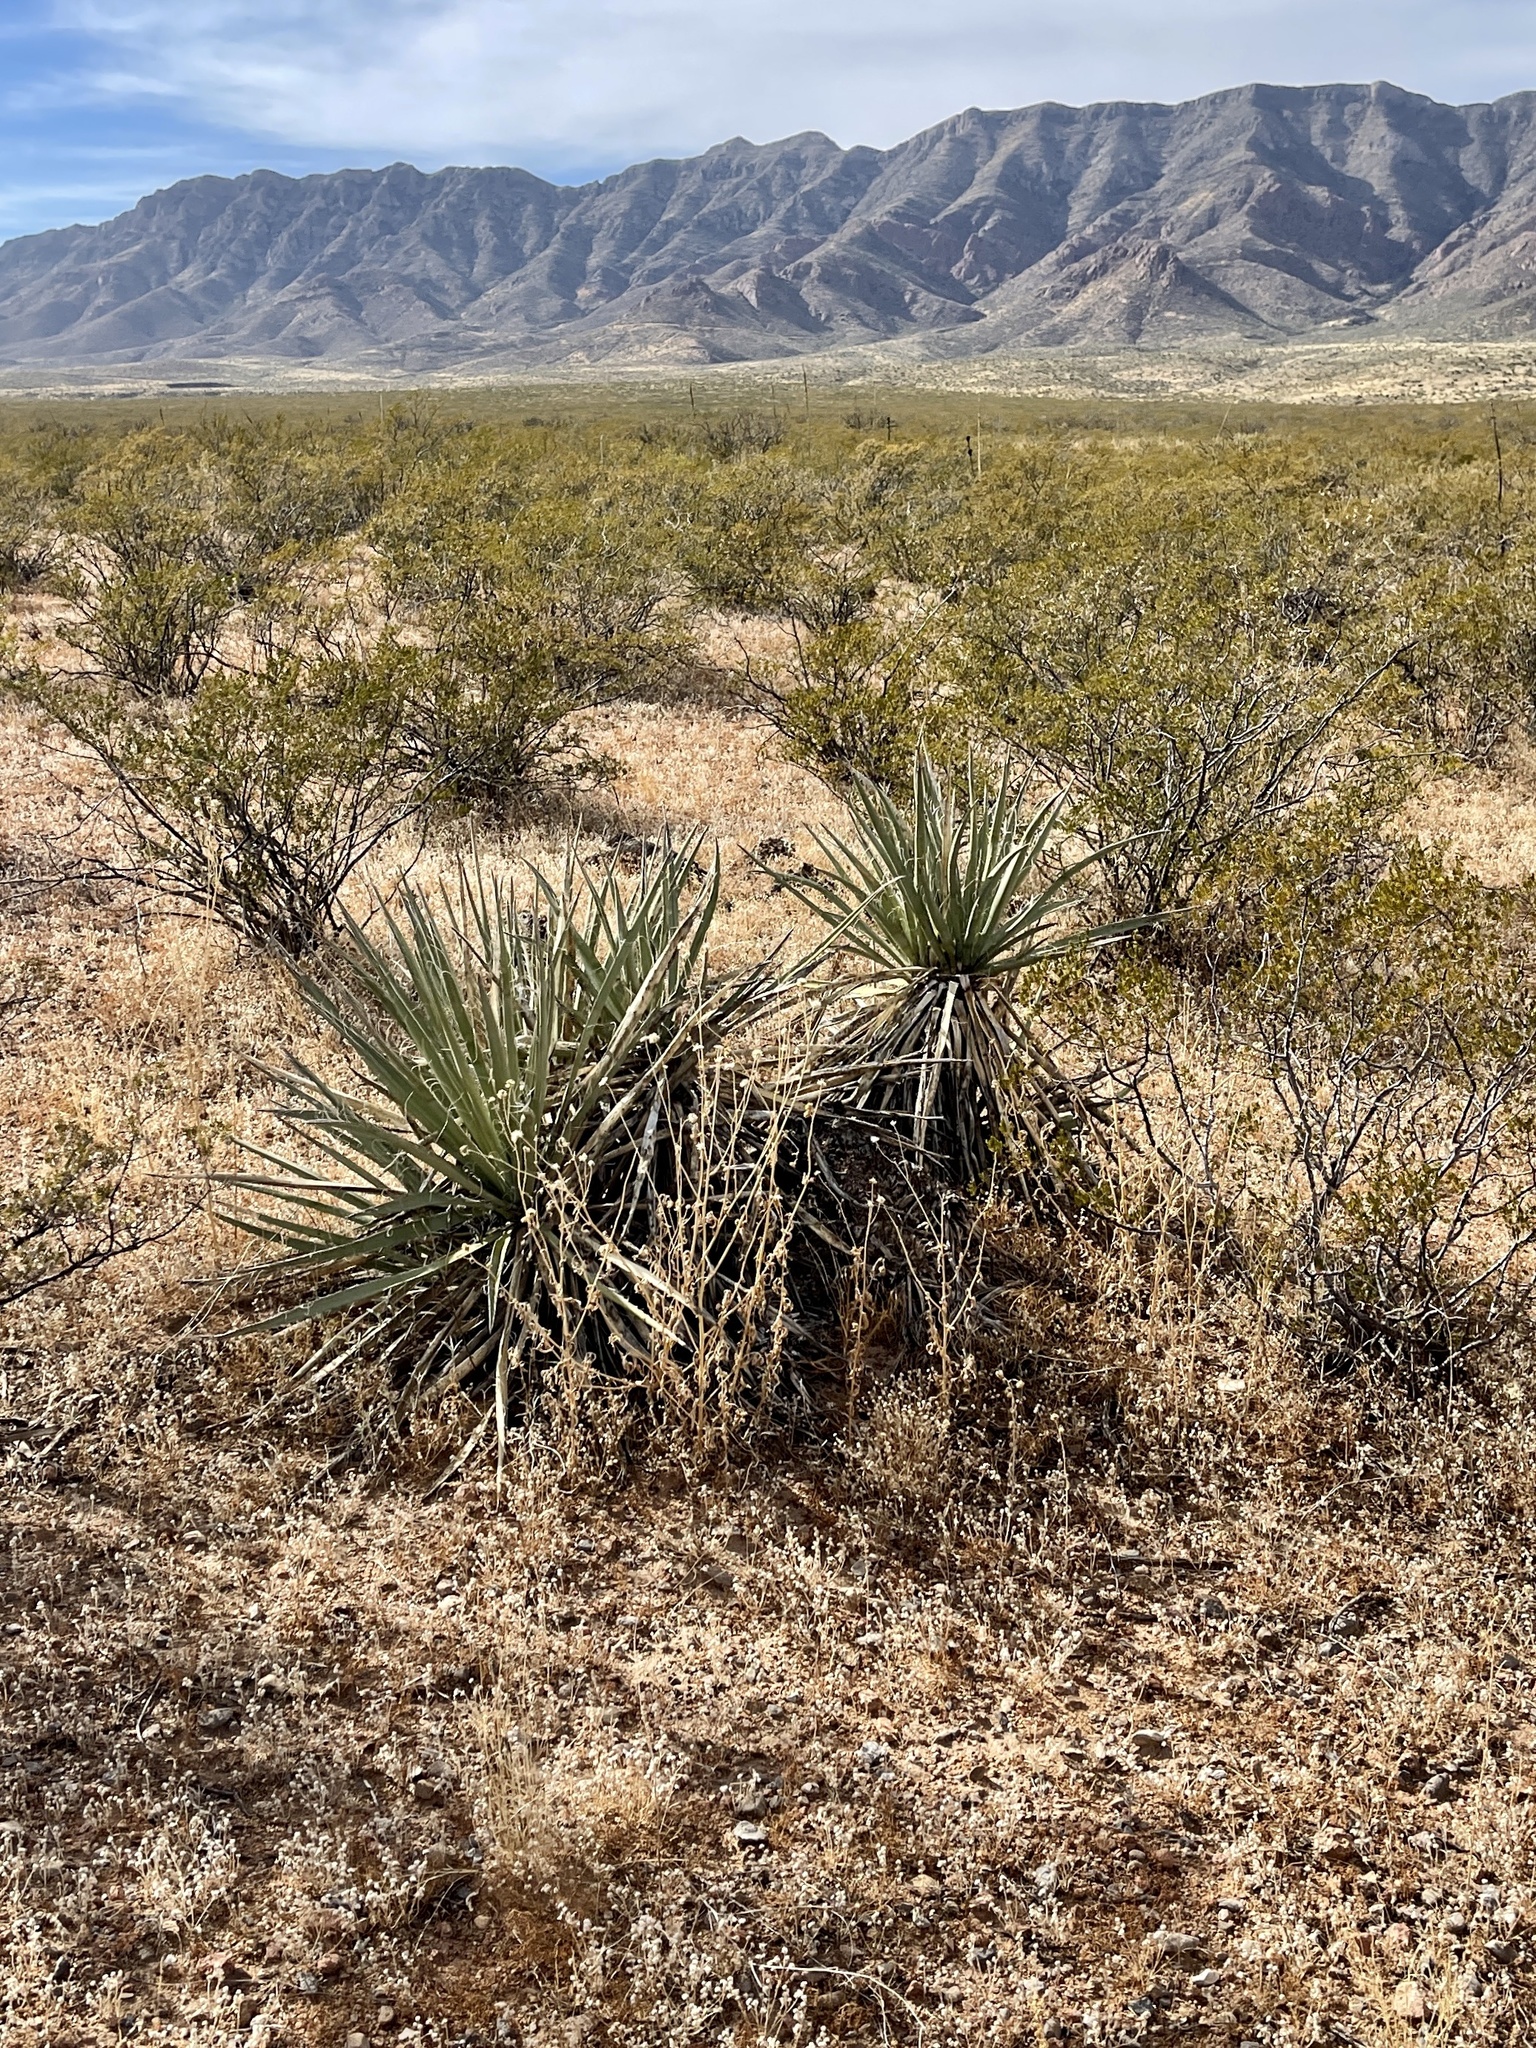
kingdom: Plantae
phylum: Tracheophyta
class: Liliopsida
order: Asparagales
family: Asparagaceae
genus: Yucca
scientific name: Yucca baccata
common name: Banana yucca
